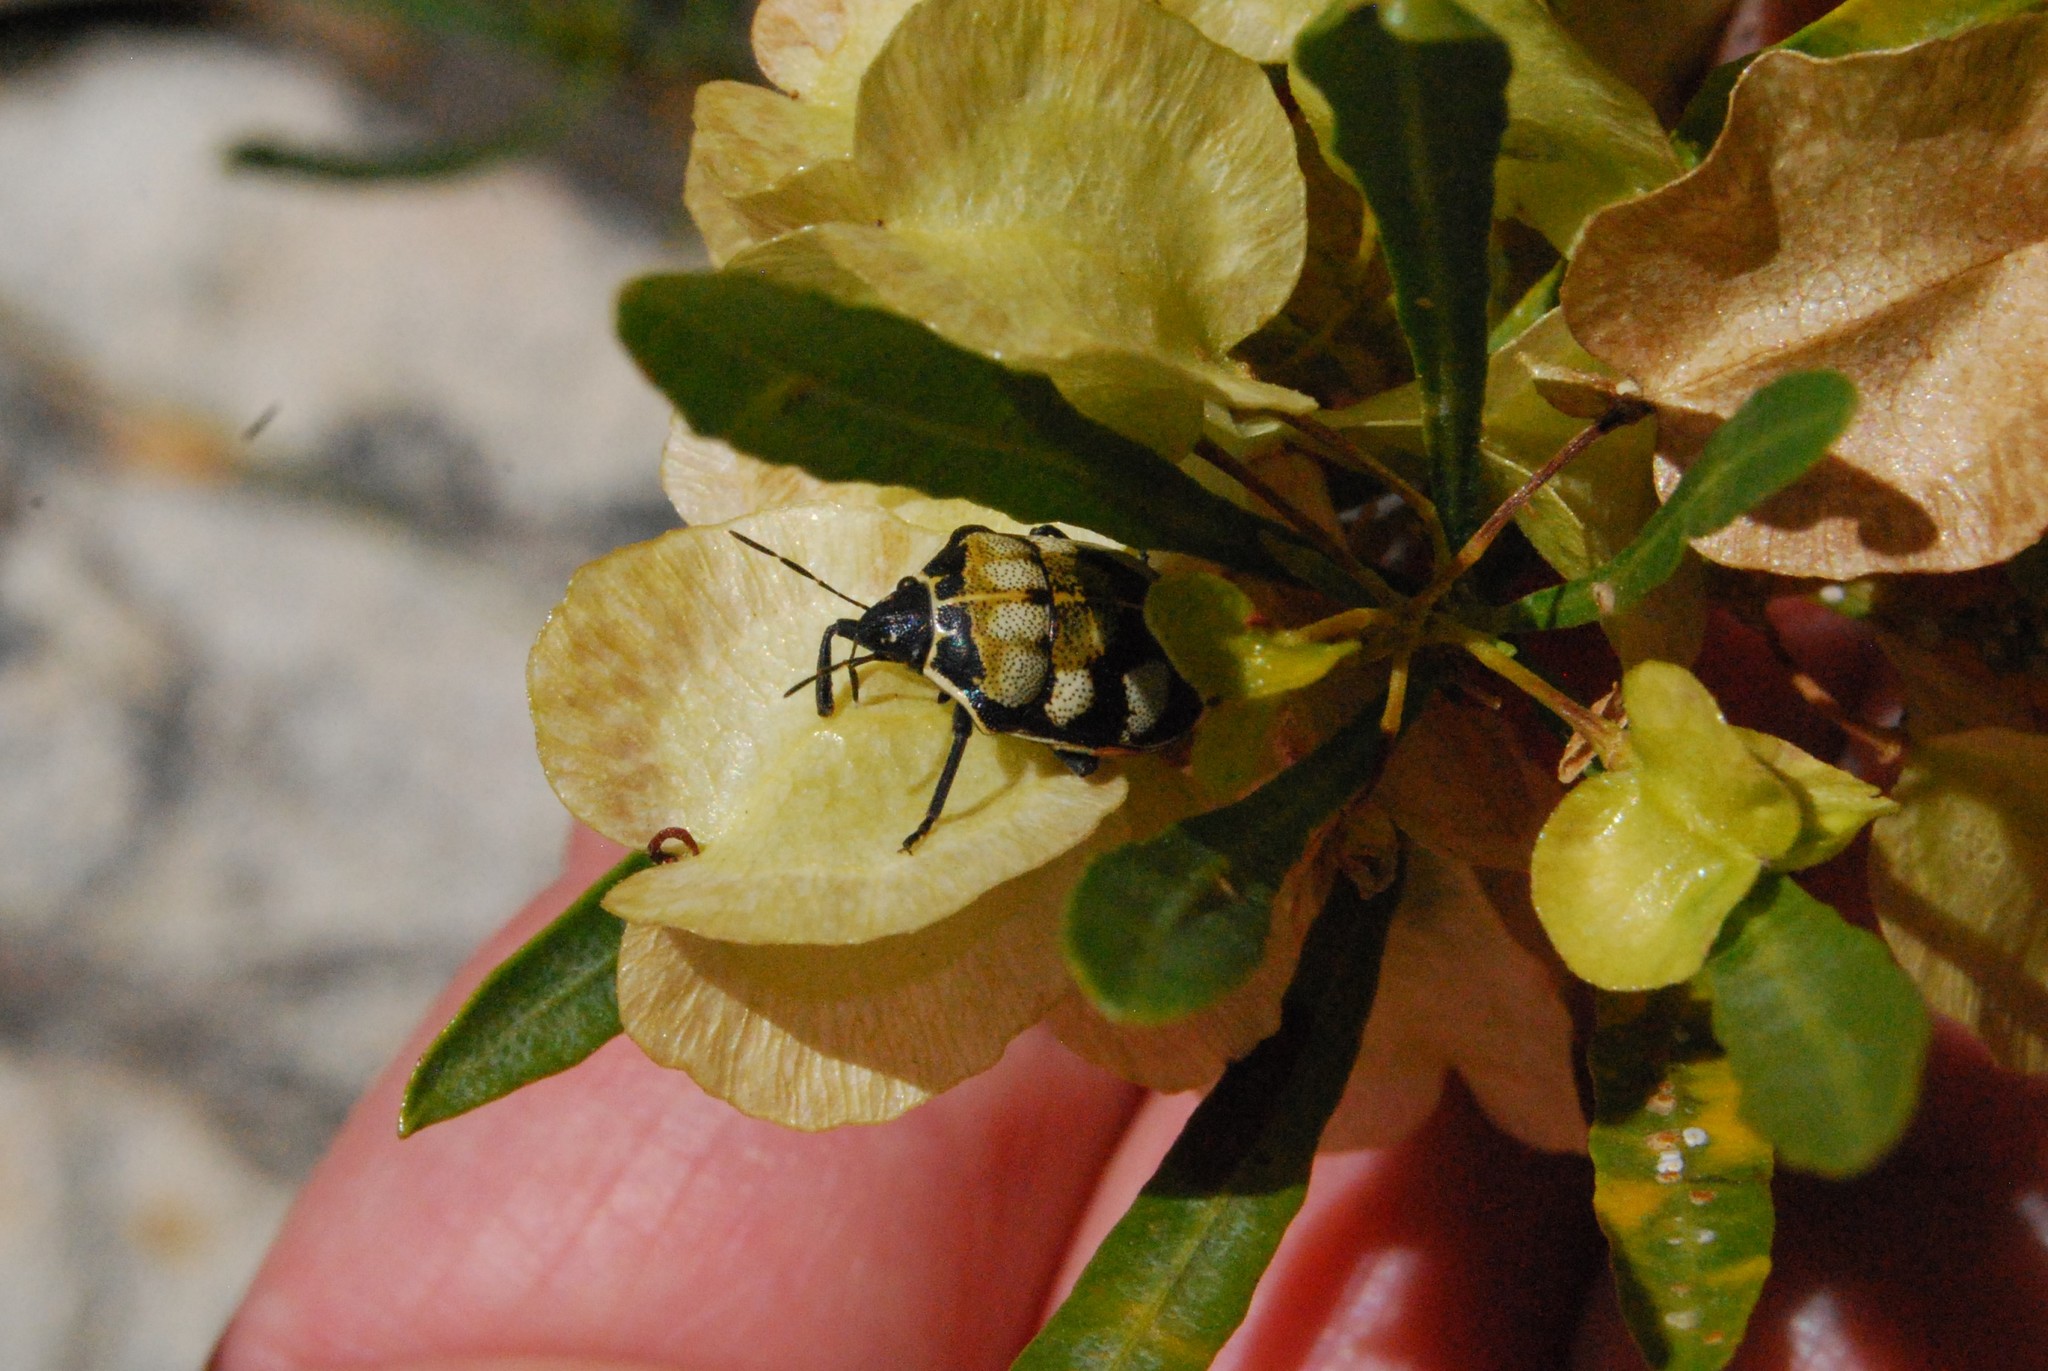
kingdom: Animalia
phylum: Arthropoda
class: Insecta
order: Hemiptera
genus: Deroplax
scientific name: Deroplax silphoides
